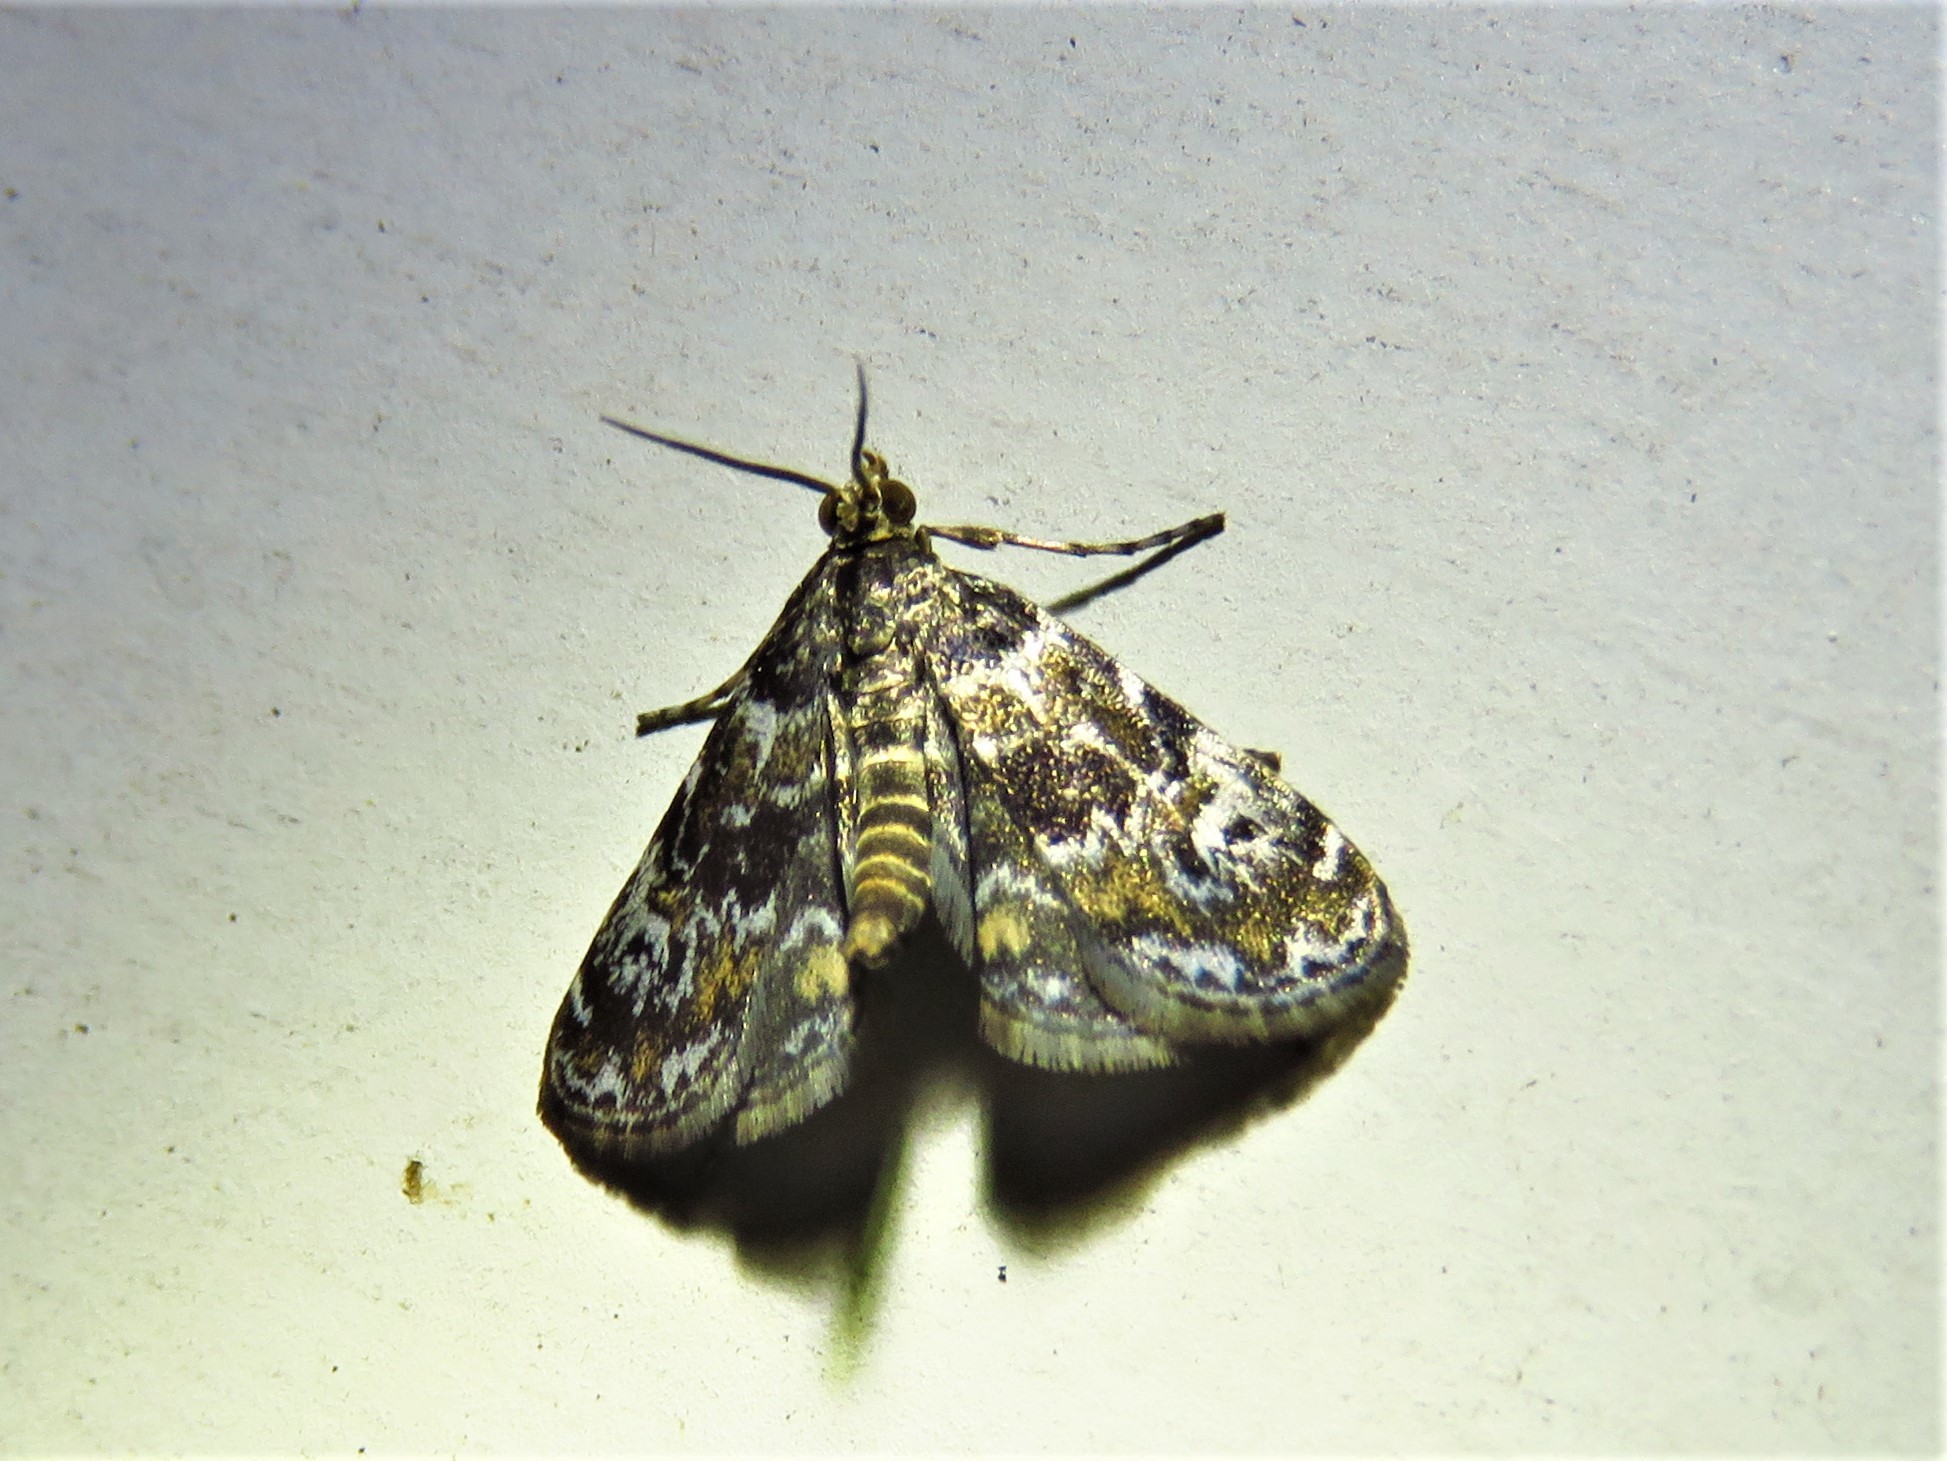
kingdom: Animalia
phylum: Arthropoda
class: Insecta
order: Lepidoptera
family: Crambidae
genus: Elophila
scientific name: Elophila obliteralis
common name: Waterlily leafcutter moth
